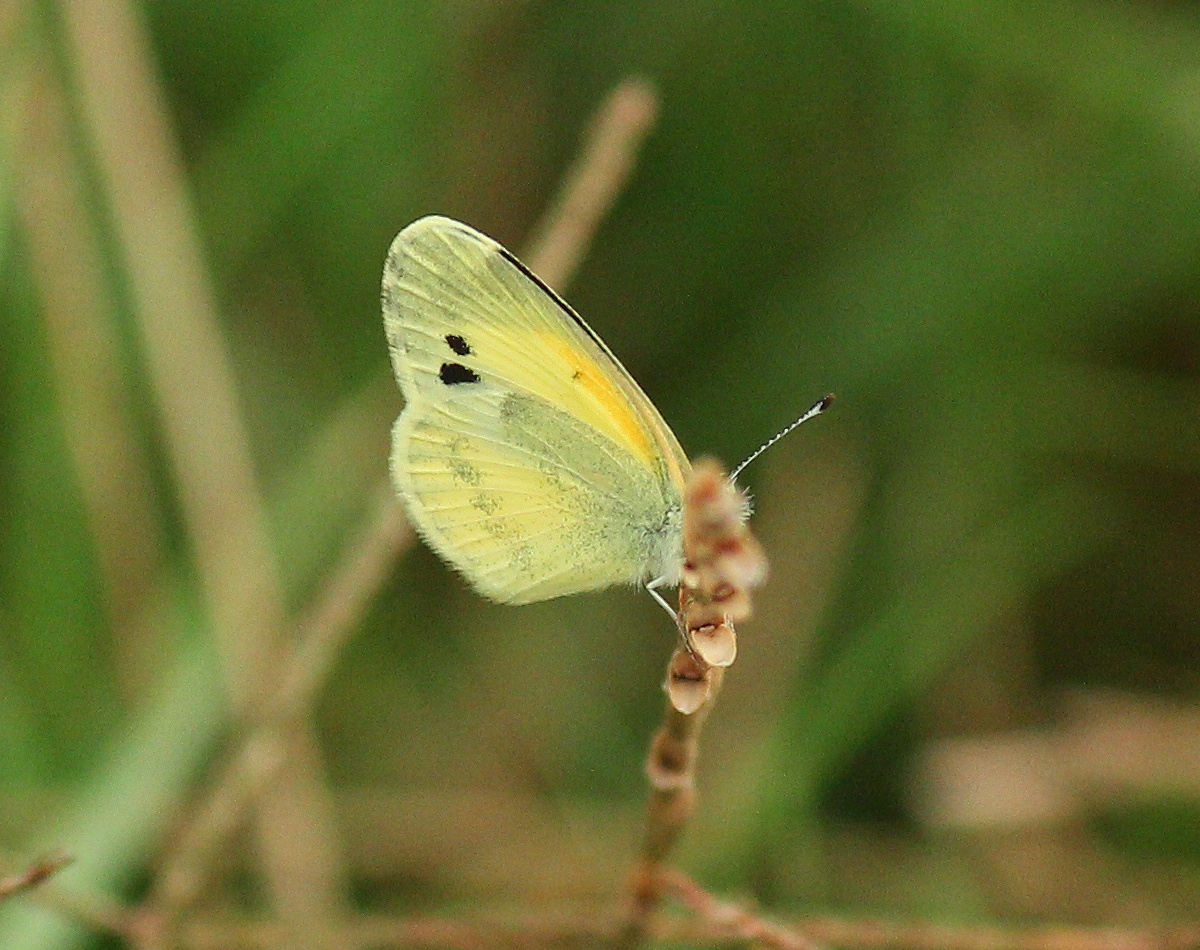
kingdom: Animalia
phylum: Arthropoda
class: Insecta
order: Lepidoptera
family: Pieridae
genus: Nathalis
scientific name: Nathalis iole
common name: Dainty sulphur
